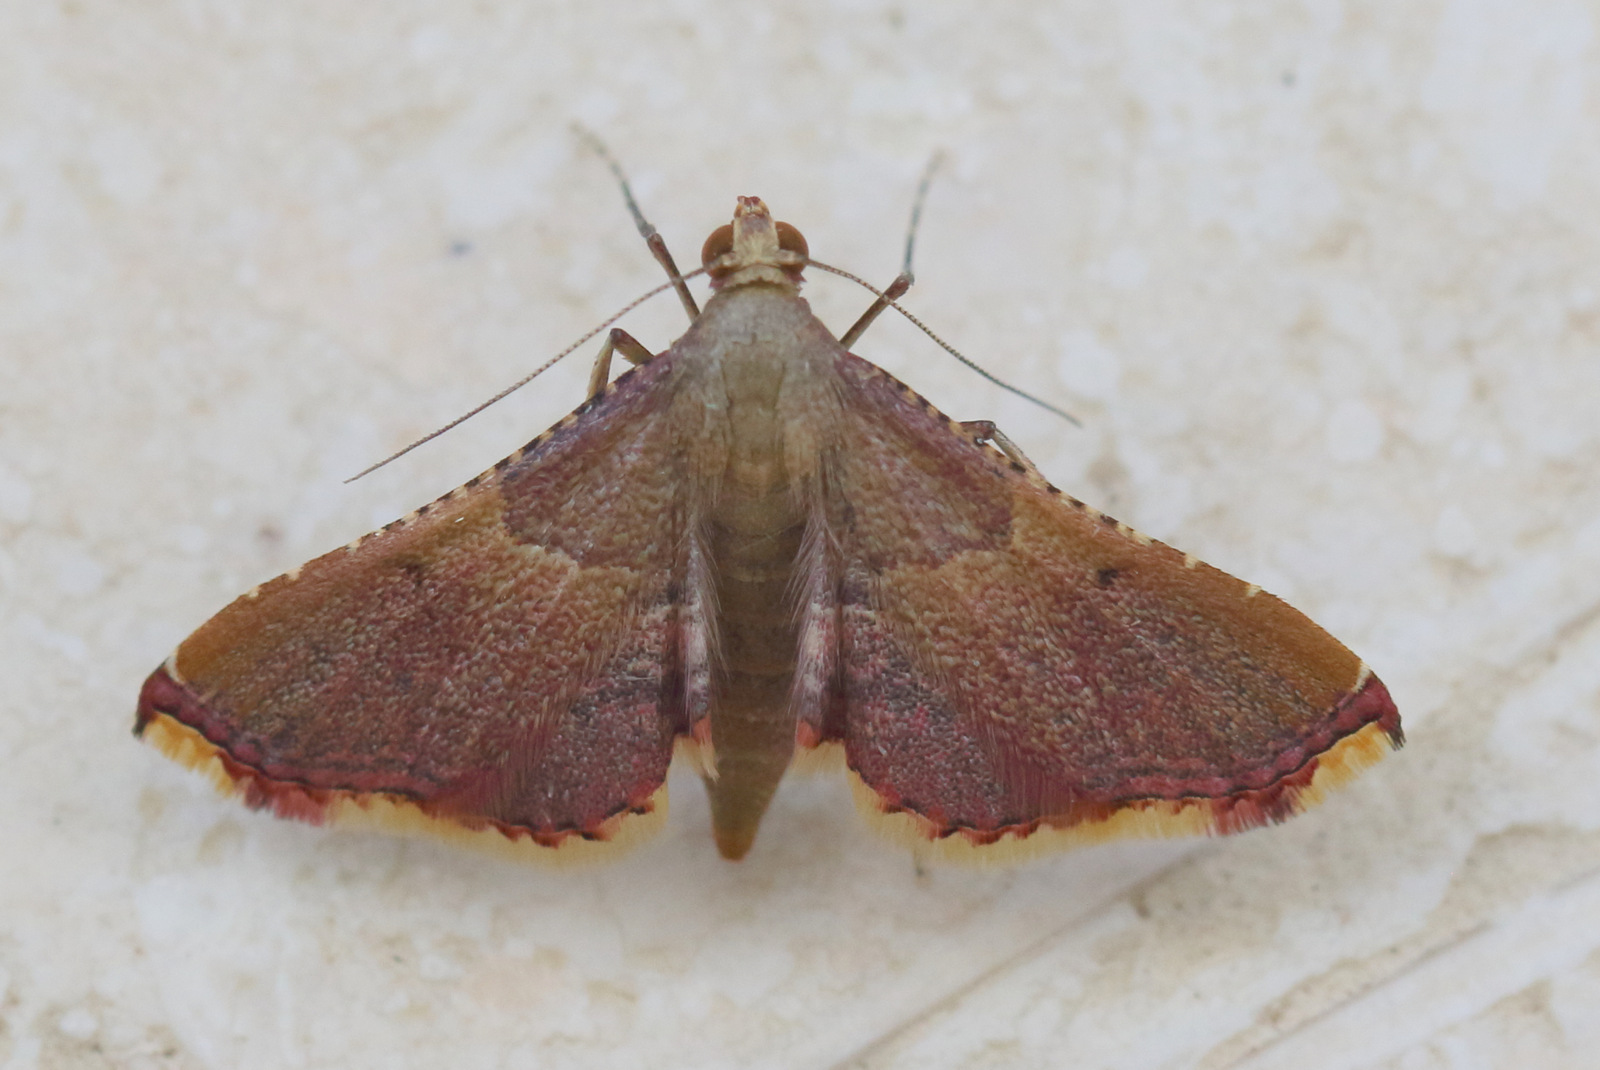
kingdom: Animalia
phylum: Arthropoda
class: Insecta
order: Lepidoptera
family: Pyralidae
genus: Endotricha
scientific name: Endotricha mesenterialis
